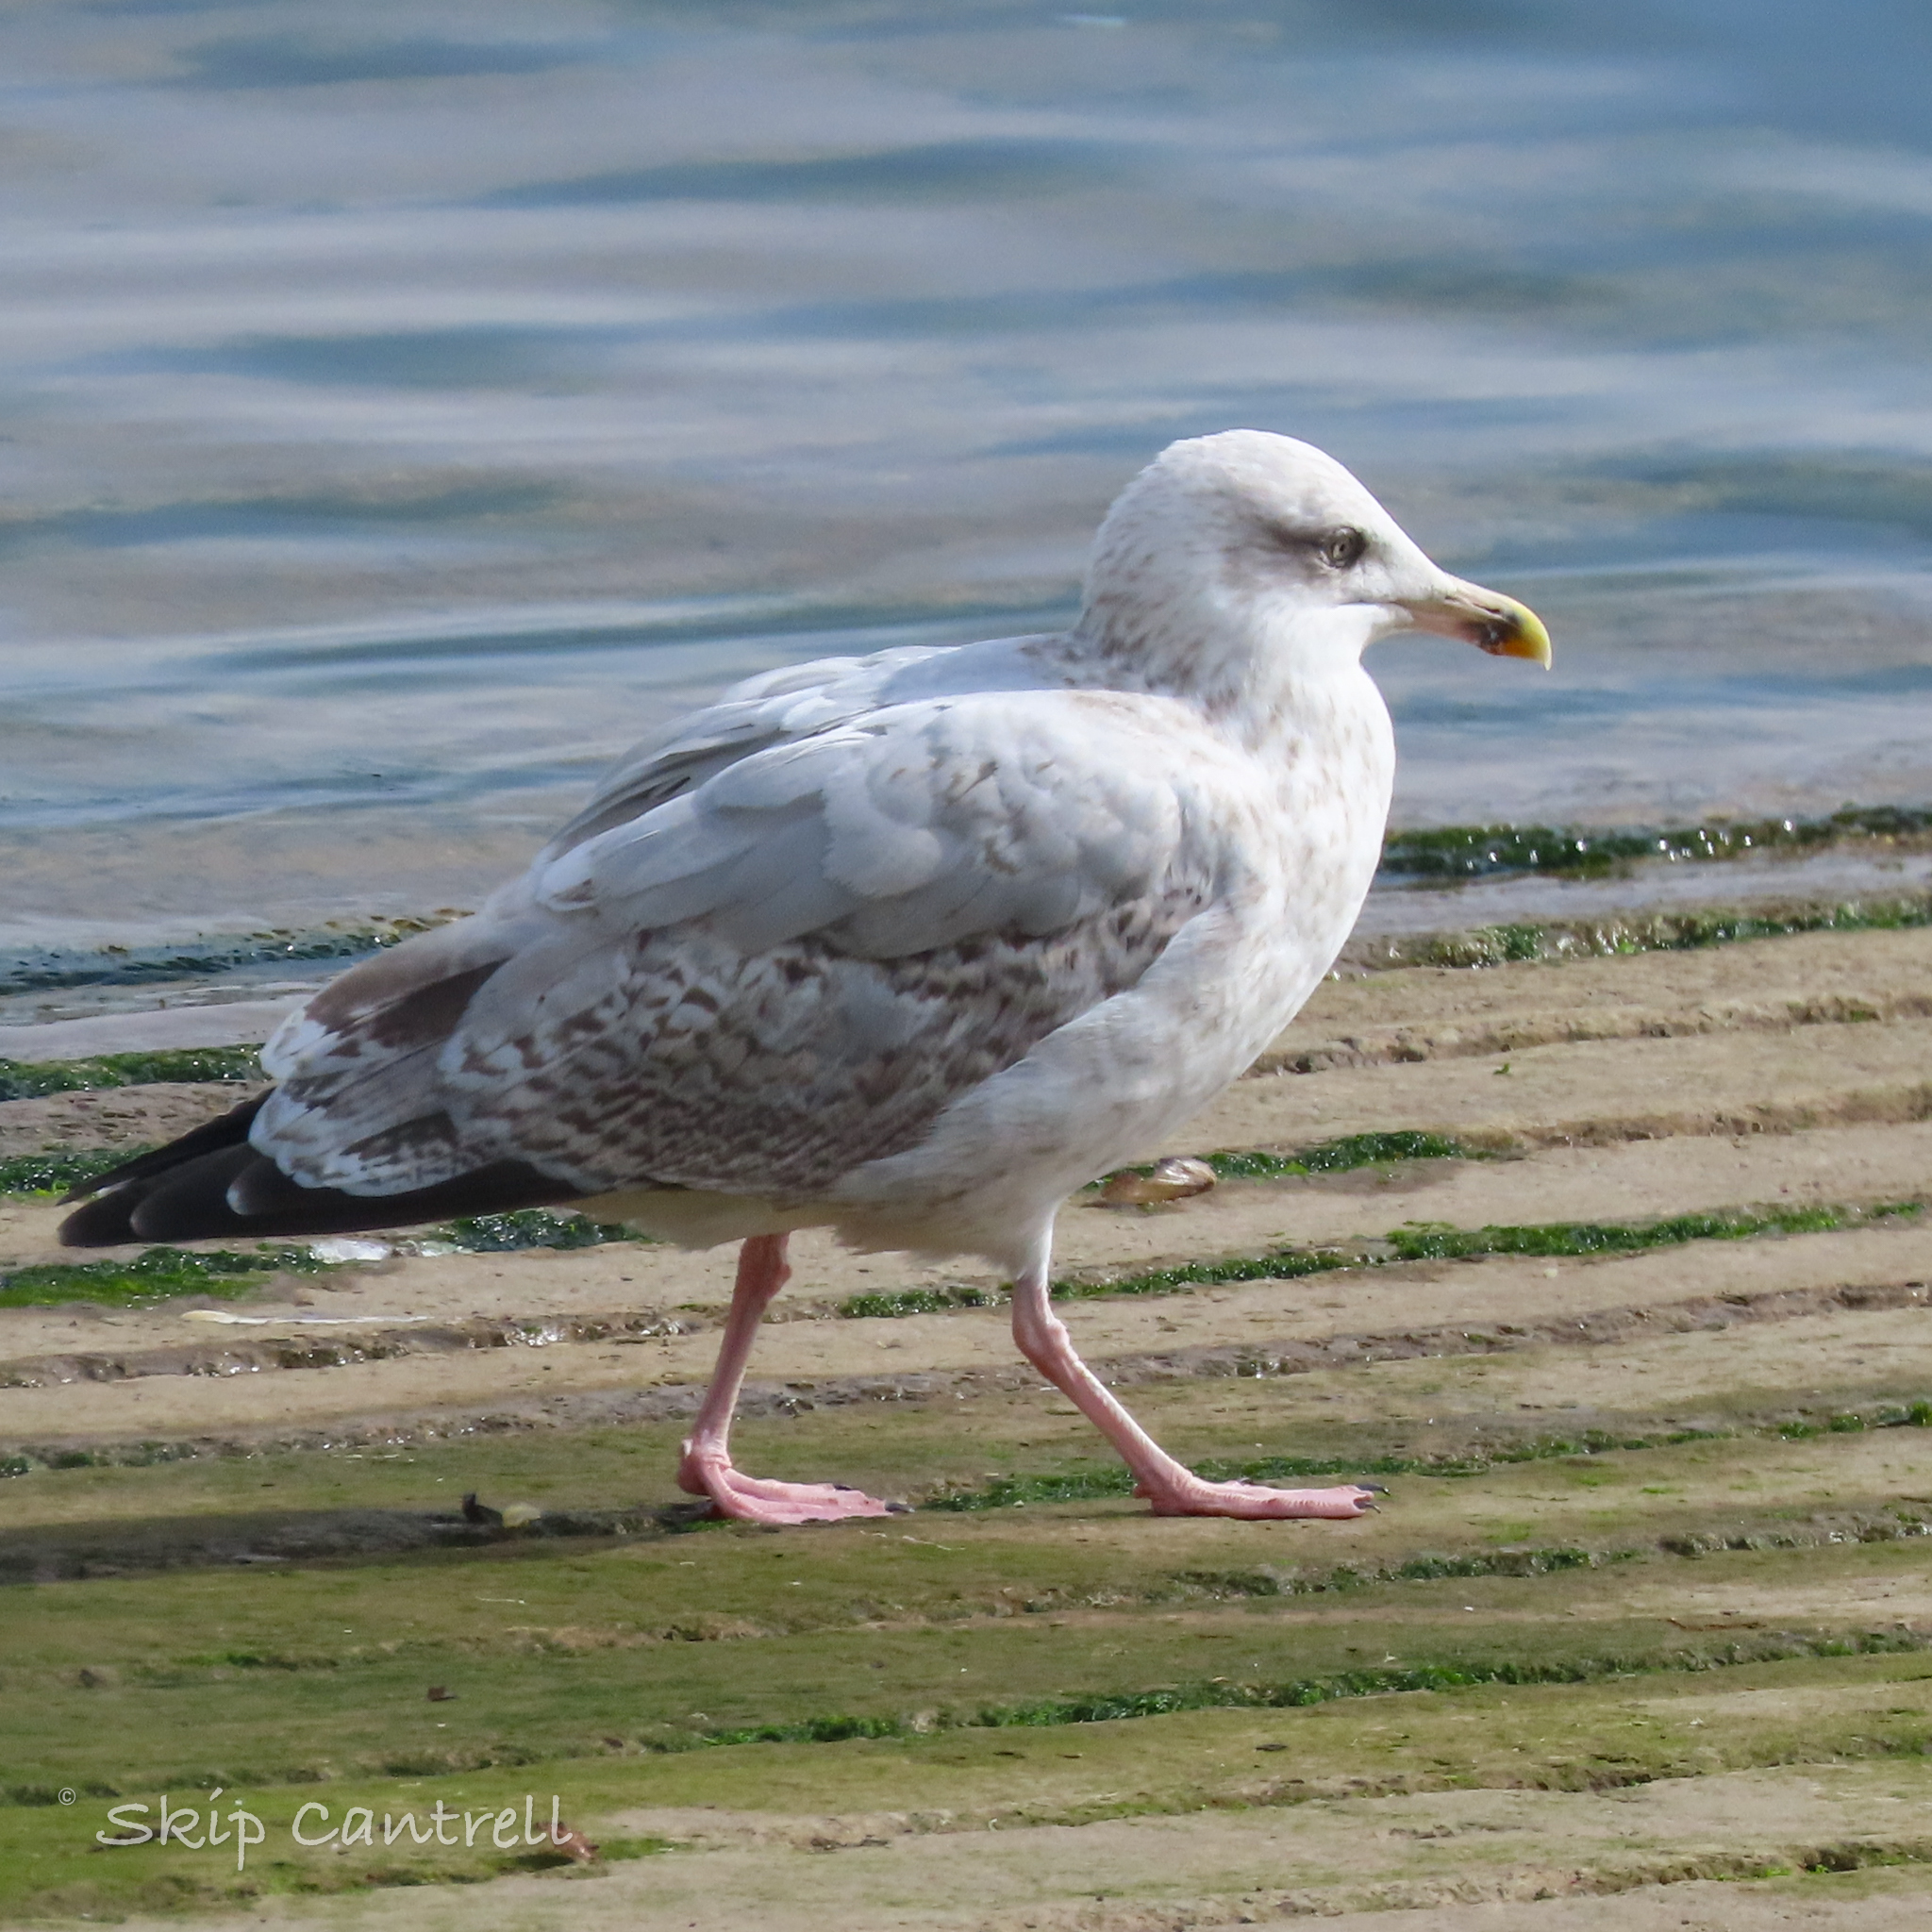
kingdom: Animalia
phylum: Chordata
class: Aves
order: Charadriiformes
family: Laridae
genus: Larus
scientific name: Larus argentatus
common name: Herring gull
